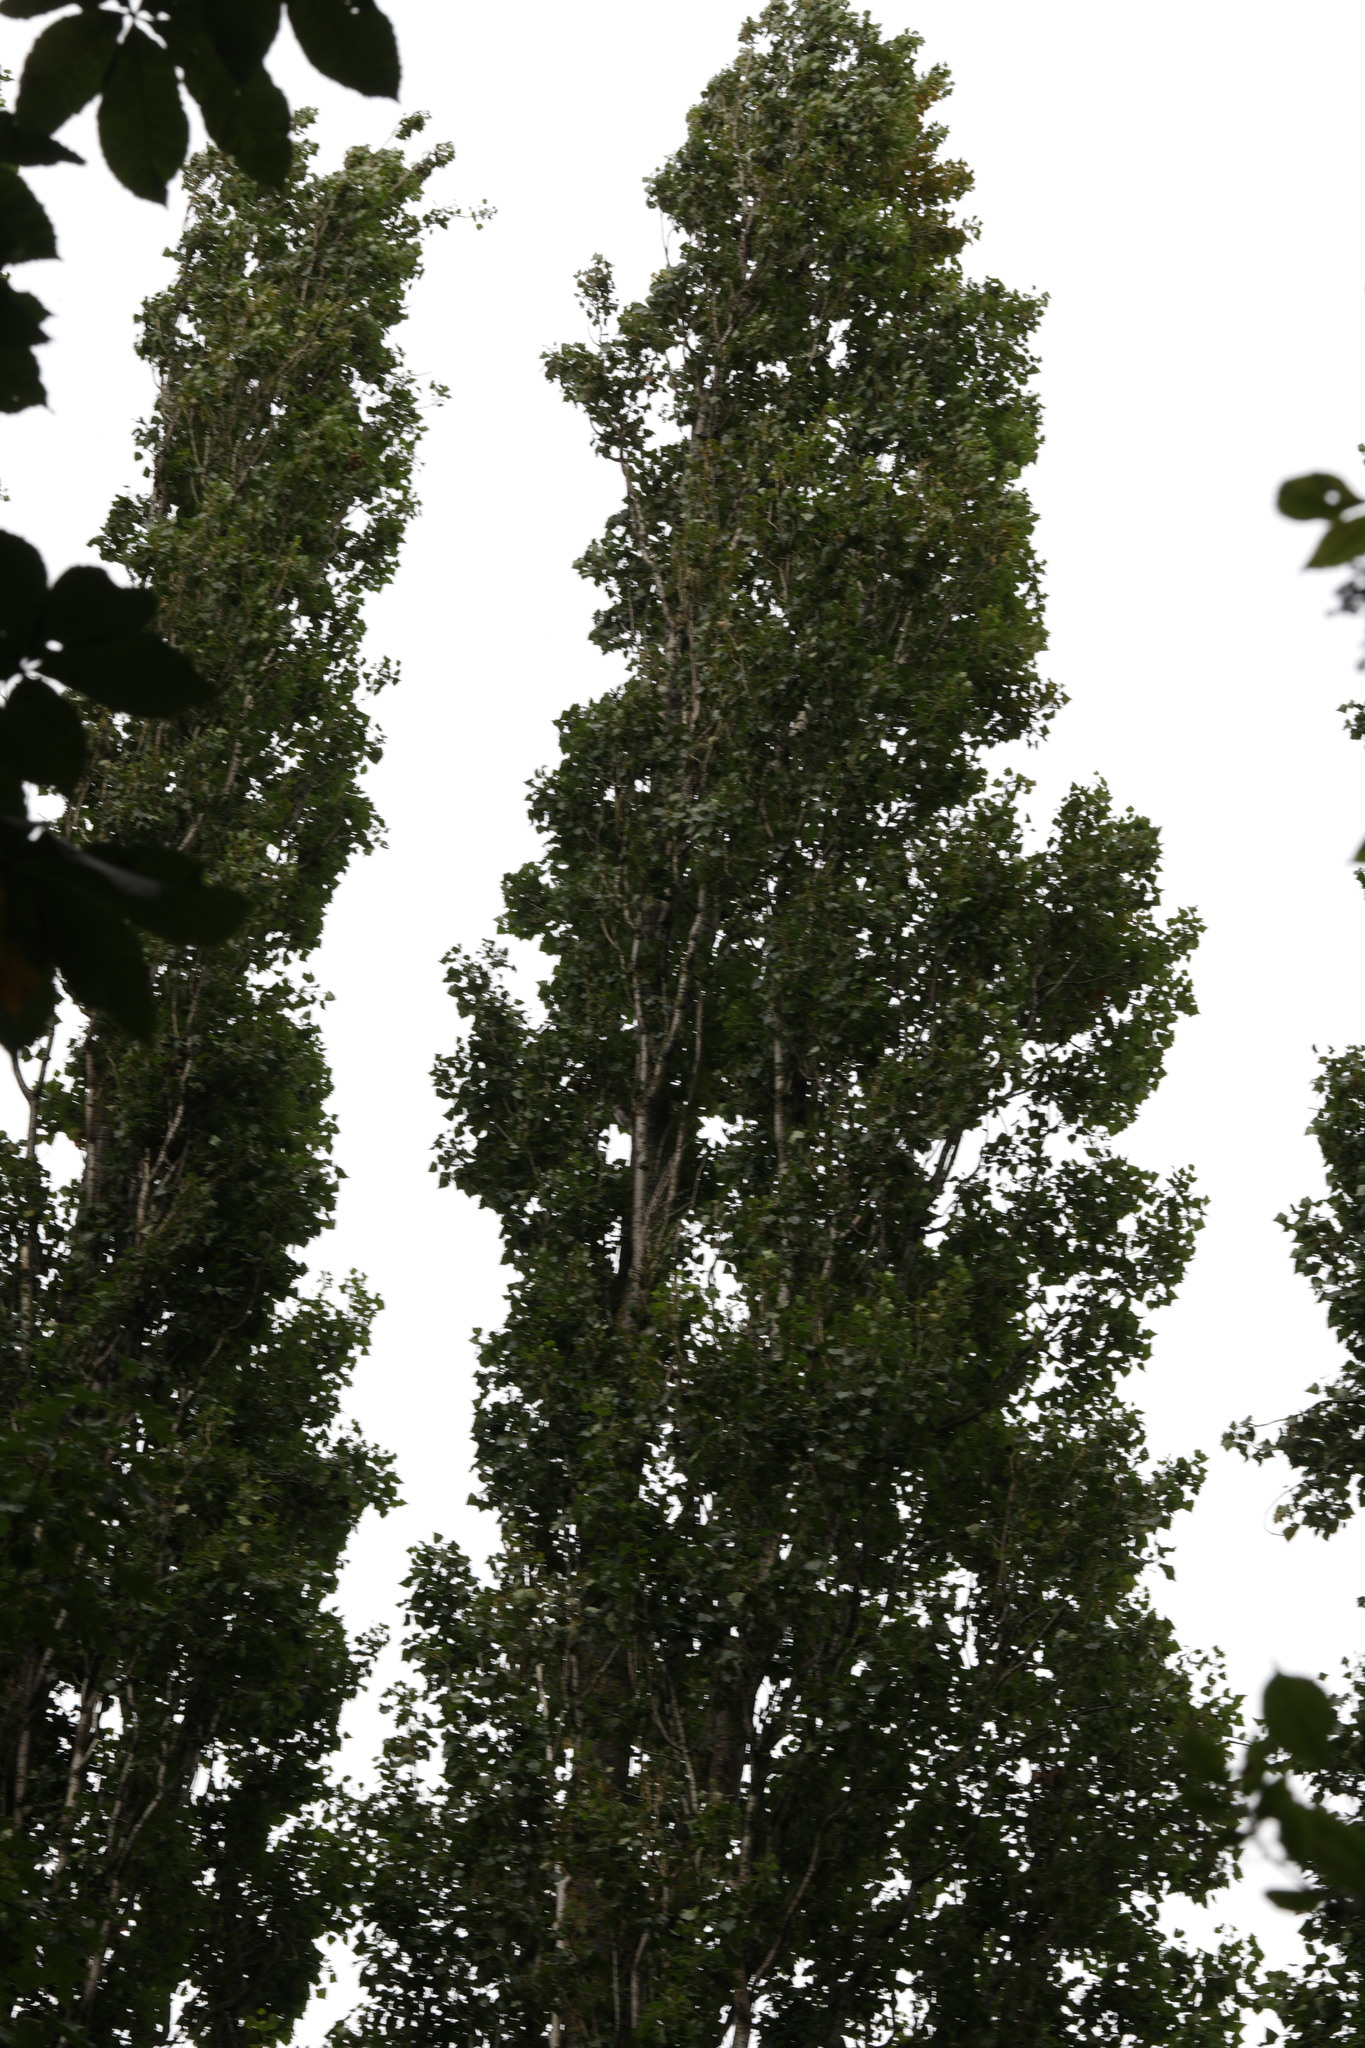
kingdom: Plantae
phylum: Tracheophyta
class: Magnoliopsida
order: Malpighiales
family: Salicaceae
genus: Populus
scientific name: Populus nigra
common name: Black poplar
